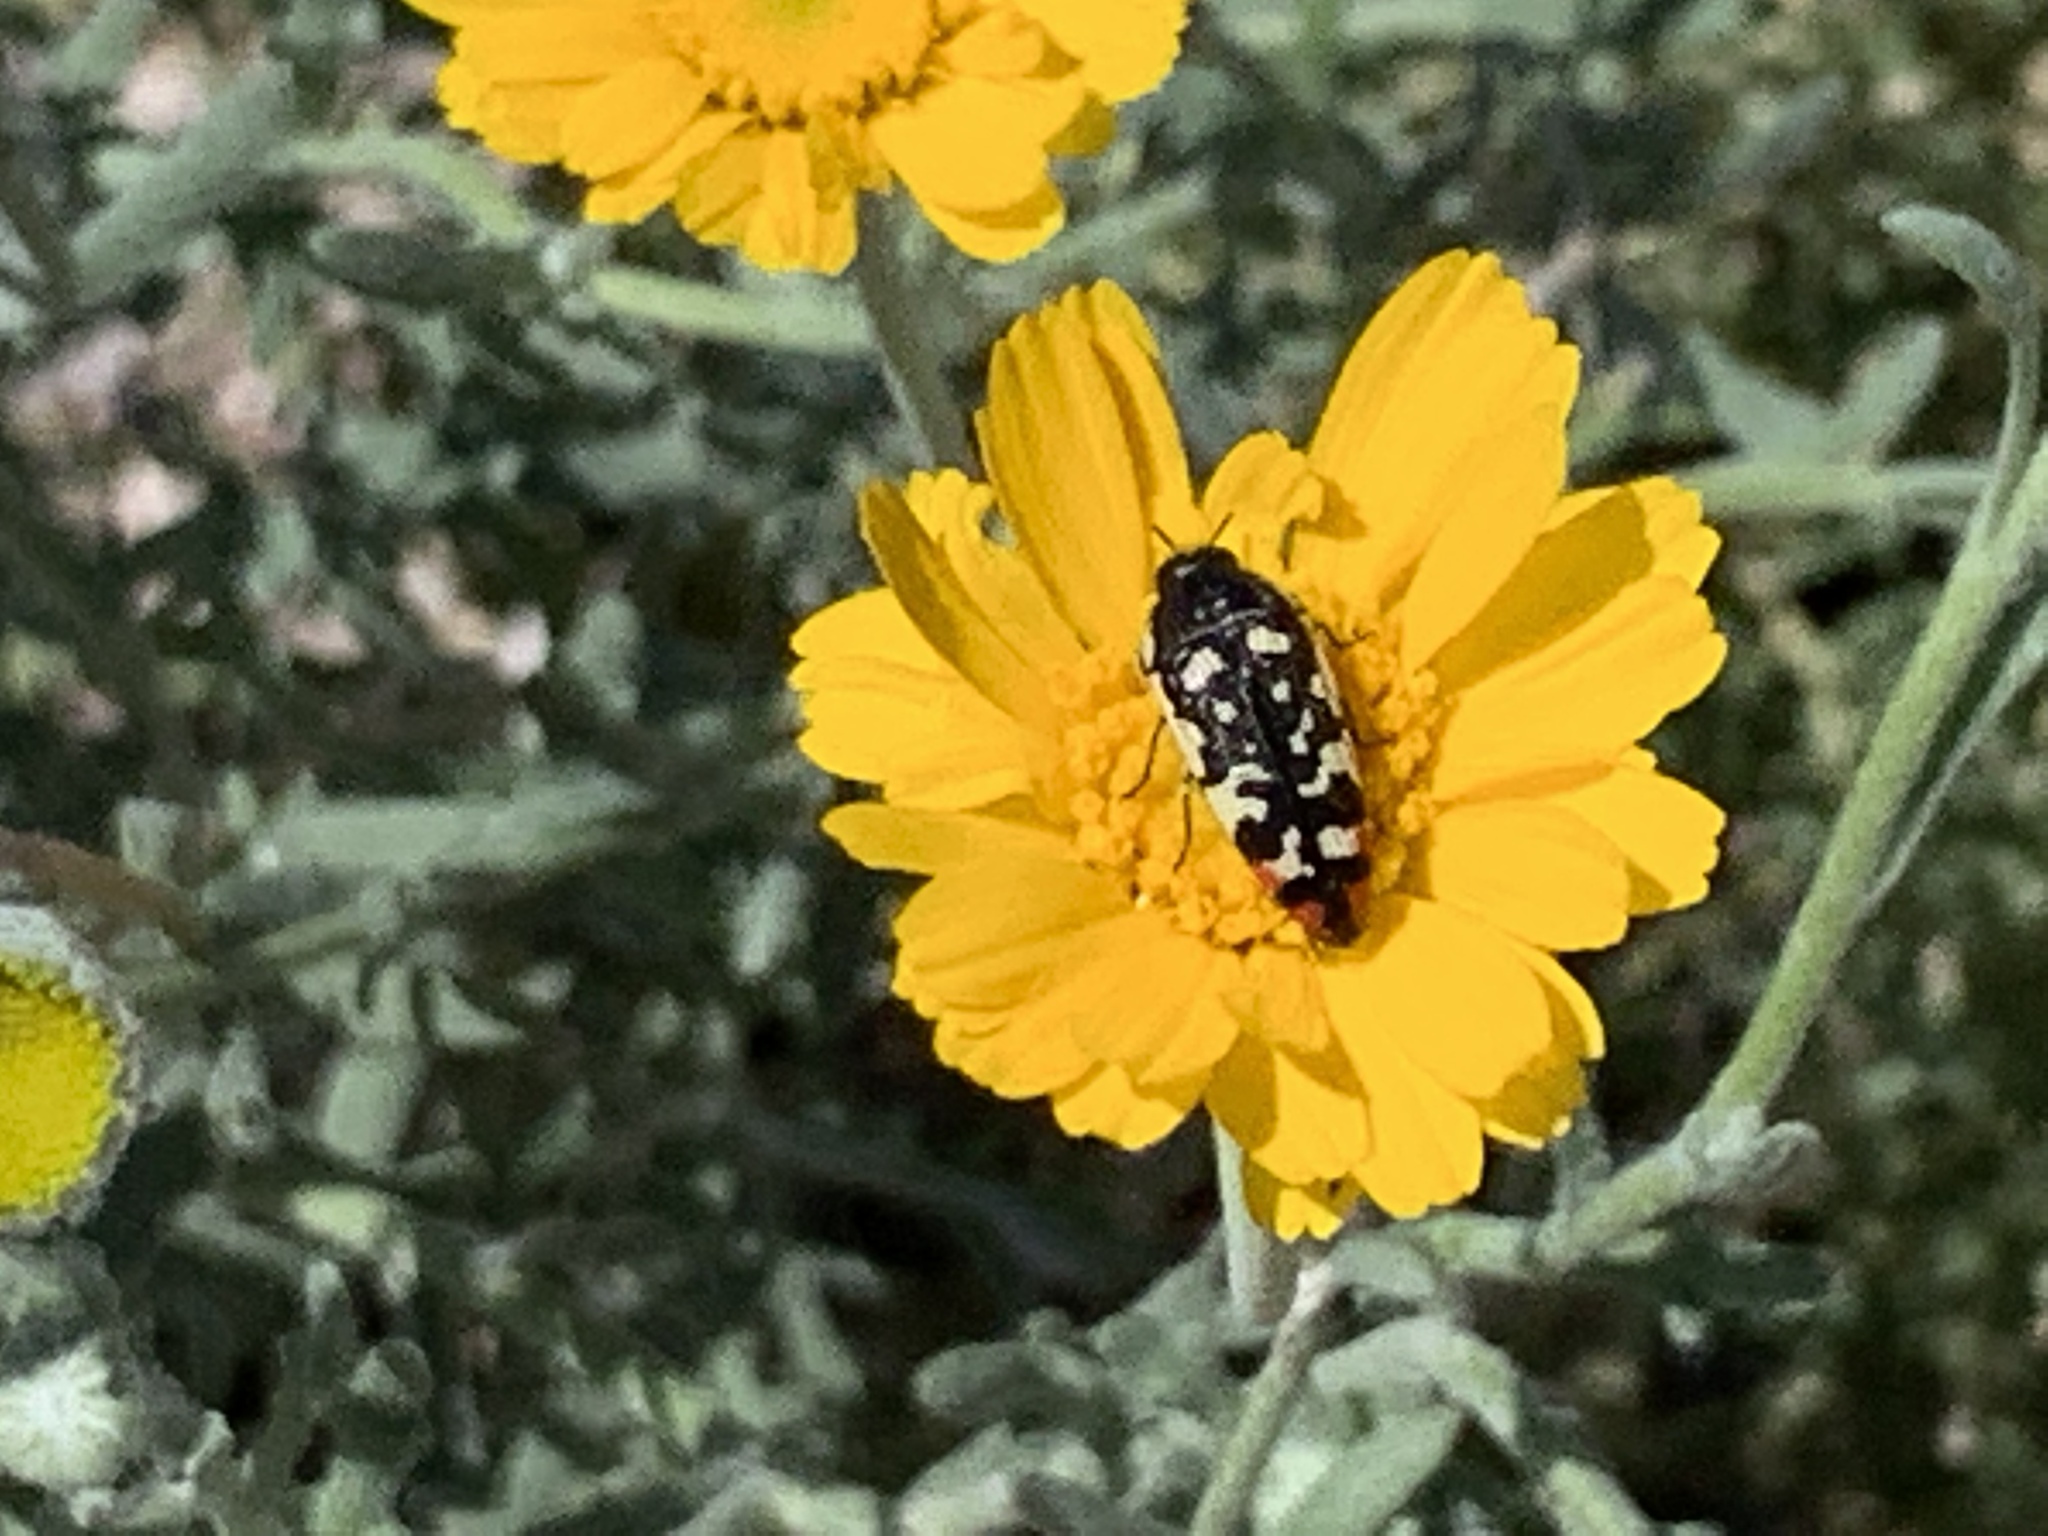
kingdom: Animalia
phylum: Arthropoda
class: Insecta
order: Coleoptera
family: Buprestidae
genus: Acmaeodera
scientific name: Acmaeodera opacula
